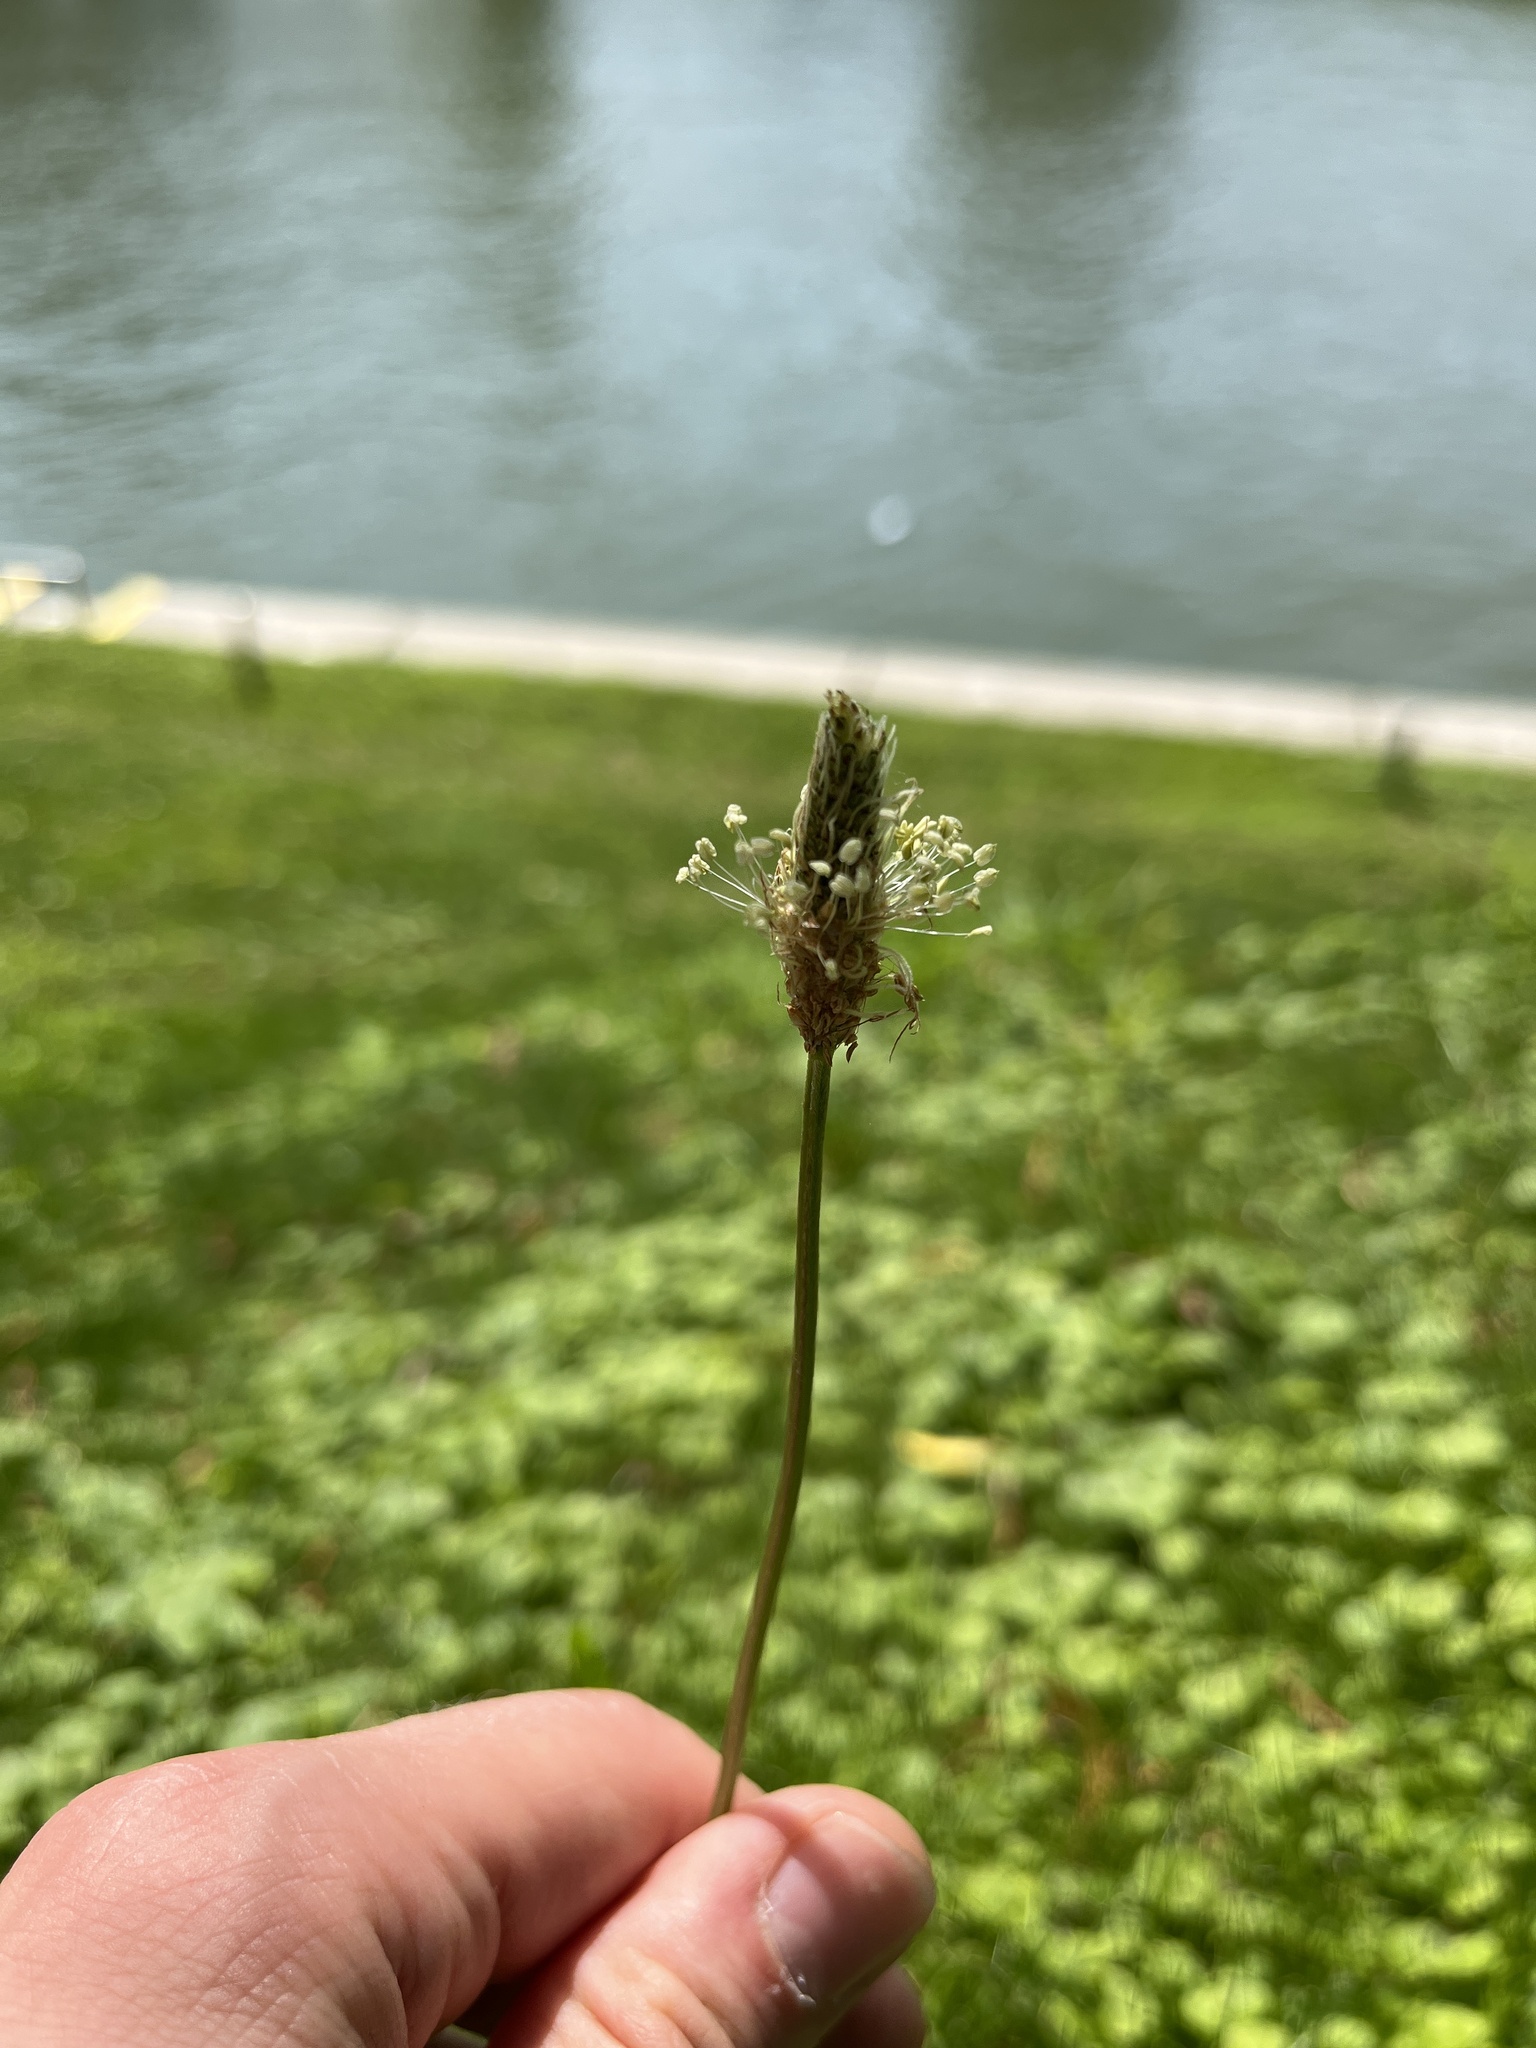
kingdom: Plantae
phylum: Tracheophyta
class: Magnoliopsida
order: Lamiales
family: Plantaginaceae
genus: Plantago
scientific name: Plantago lanceolata
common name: Ribwort plantain
